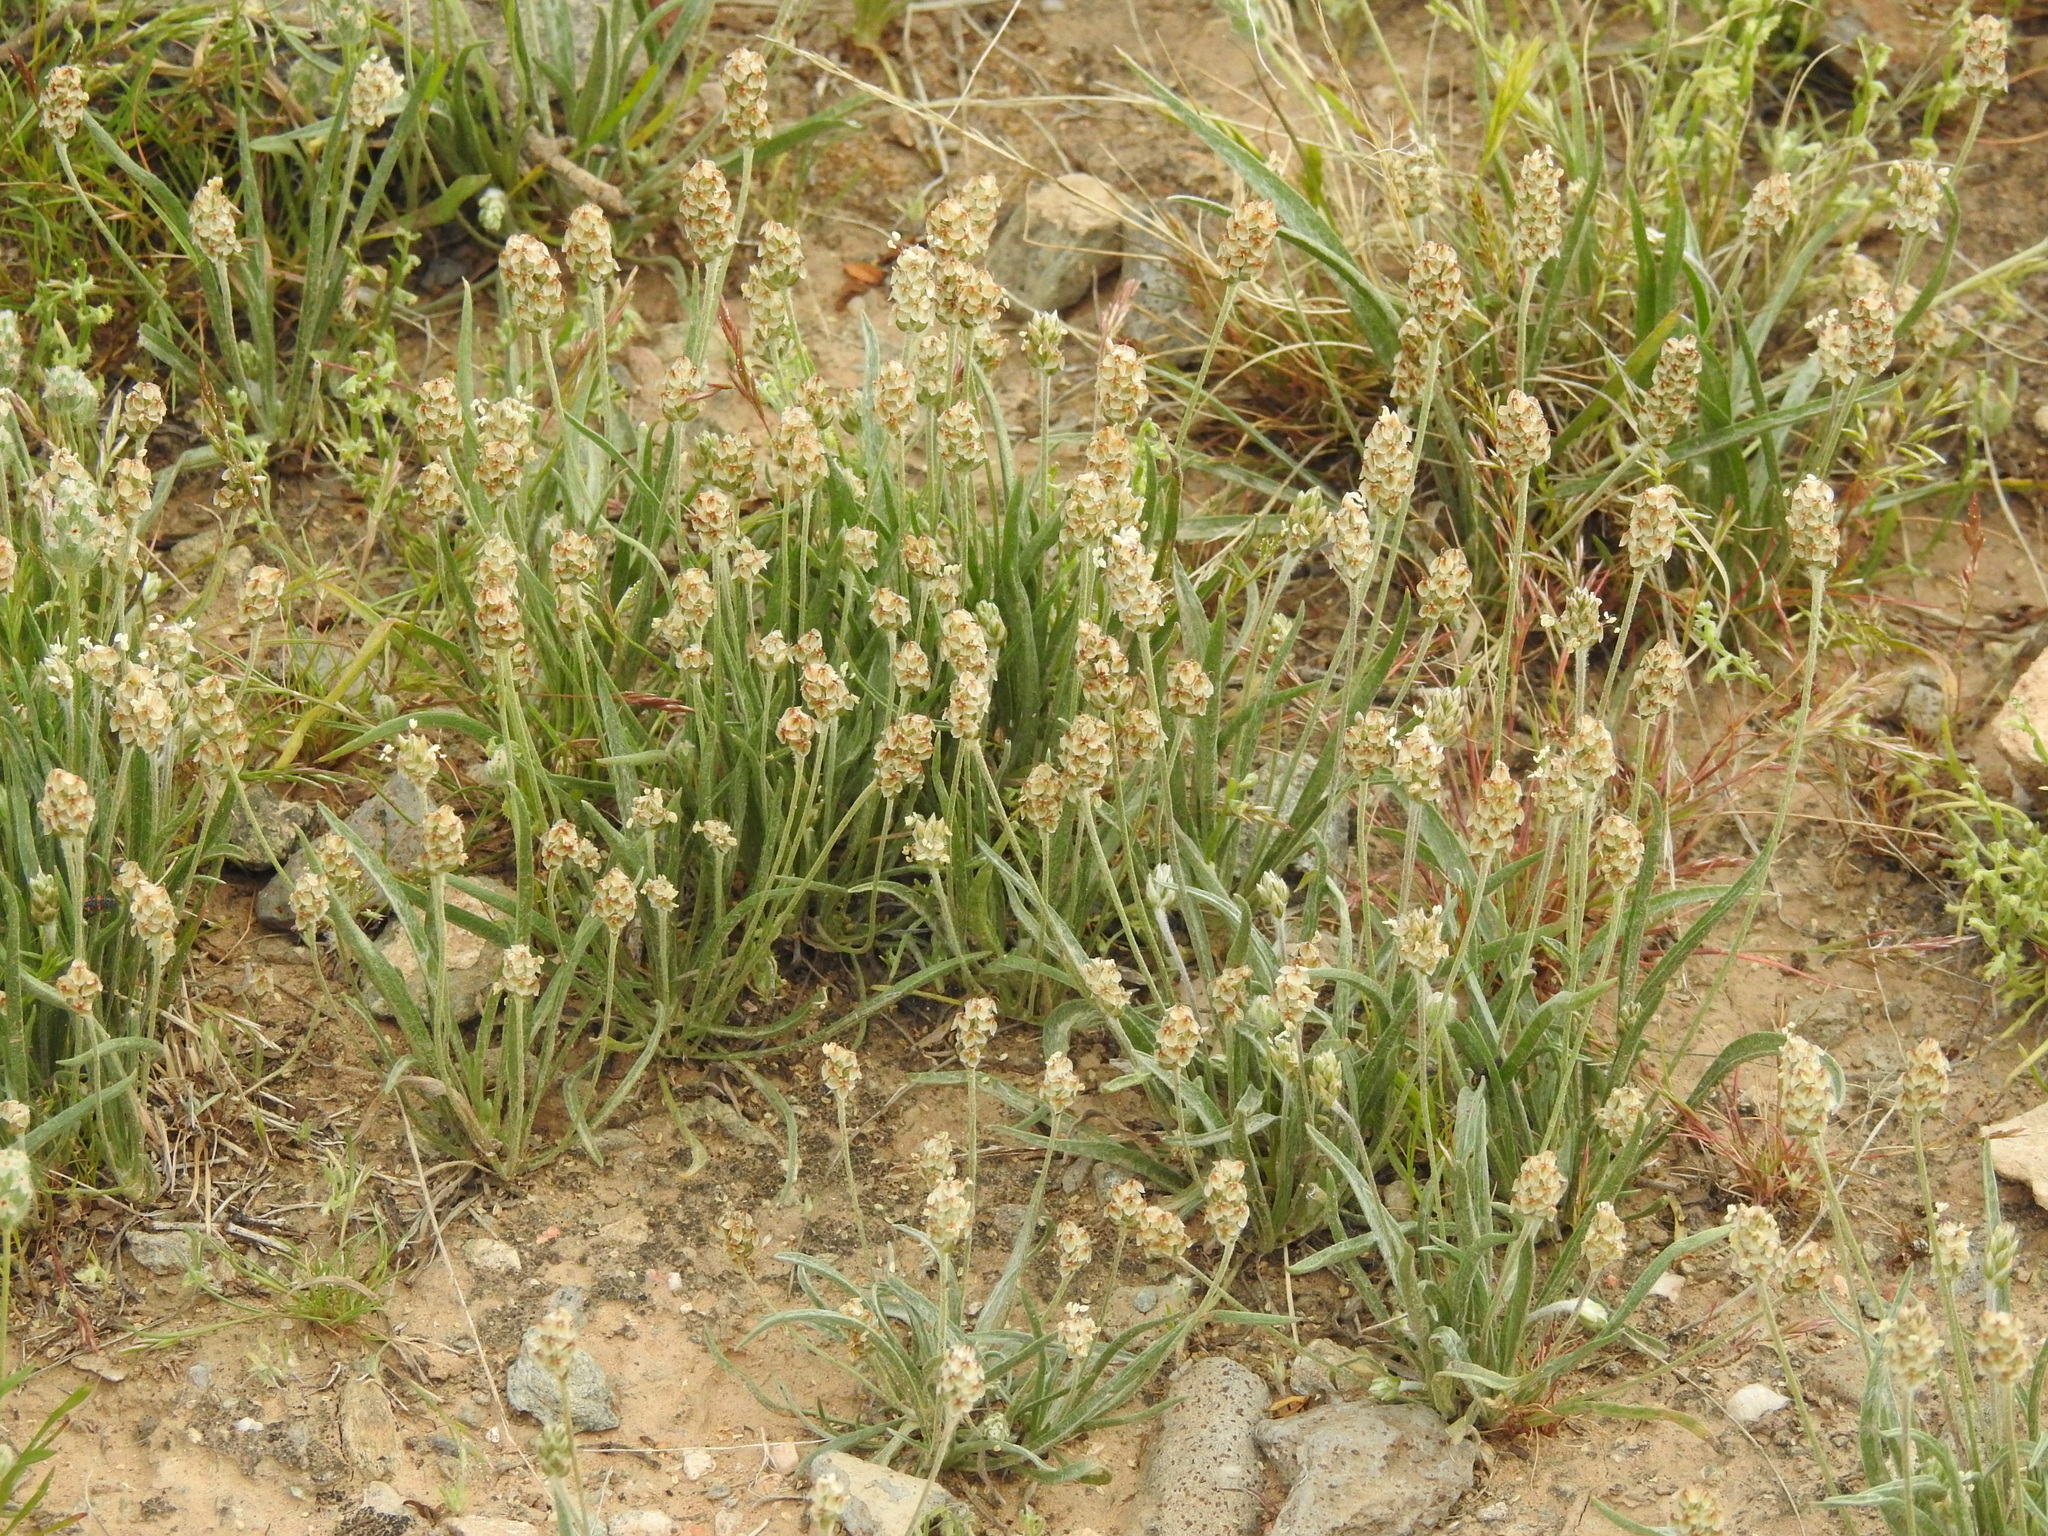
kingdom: Plantae
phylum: Tracheophyta
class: Magnoliopsida
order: Lamiales
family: Plantaginaceae
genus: Plantago
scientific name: Plantago ovata
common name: Blond plantain
